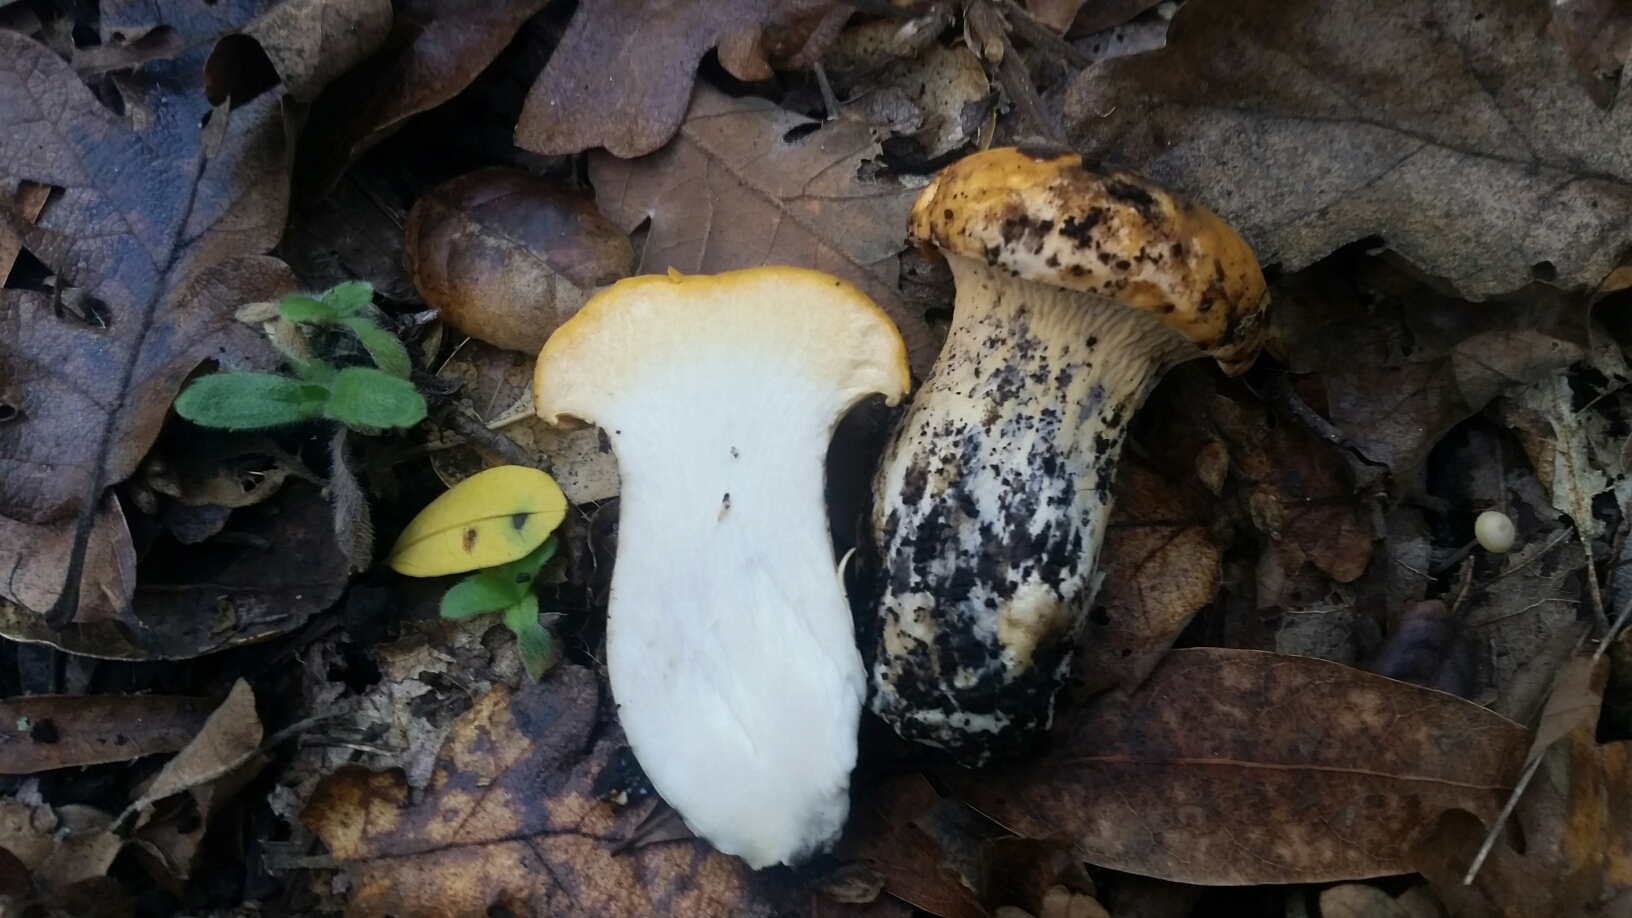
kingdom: Fungi
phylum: Basidiomycota
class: Agaricomycetes
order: Cantharellales
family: Hydnaceae
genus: Cantharellus
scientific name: Cantharellus californicus
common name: California golden chanterelle
